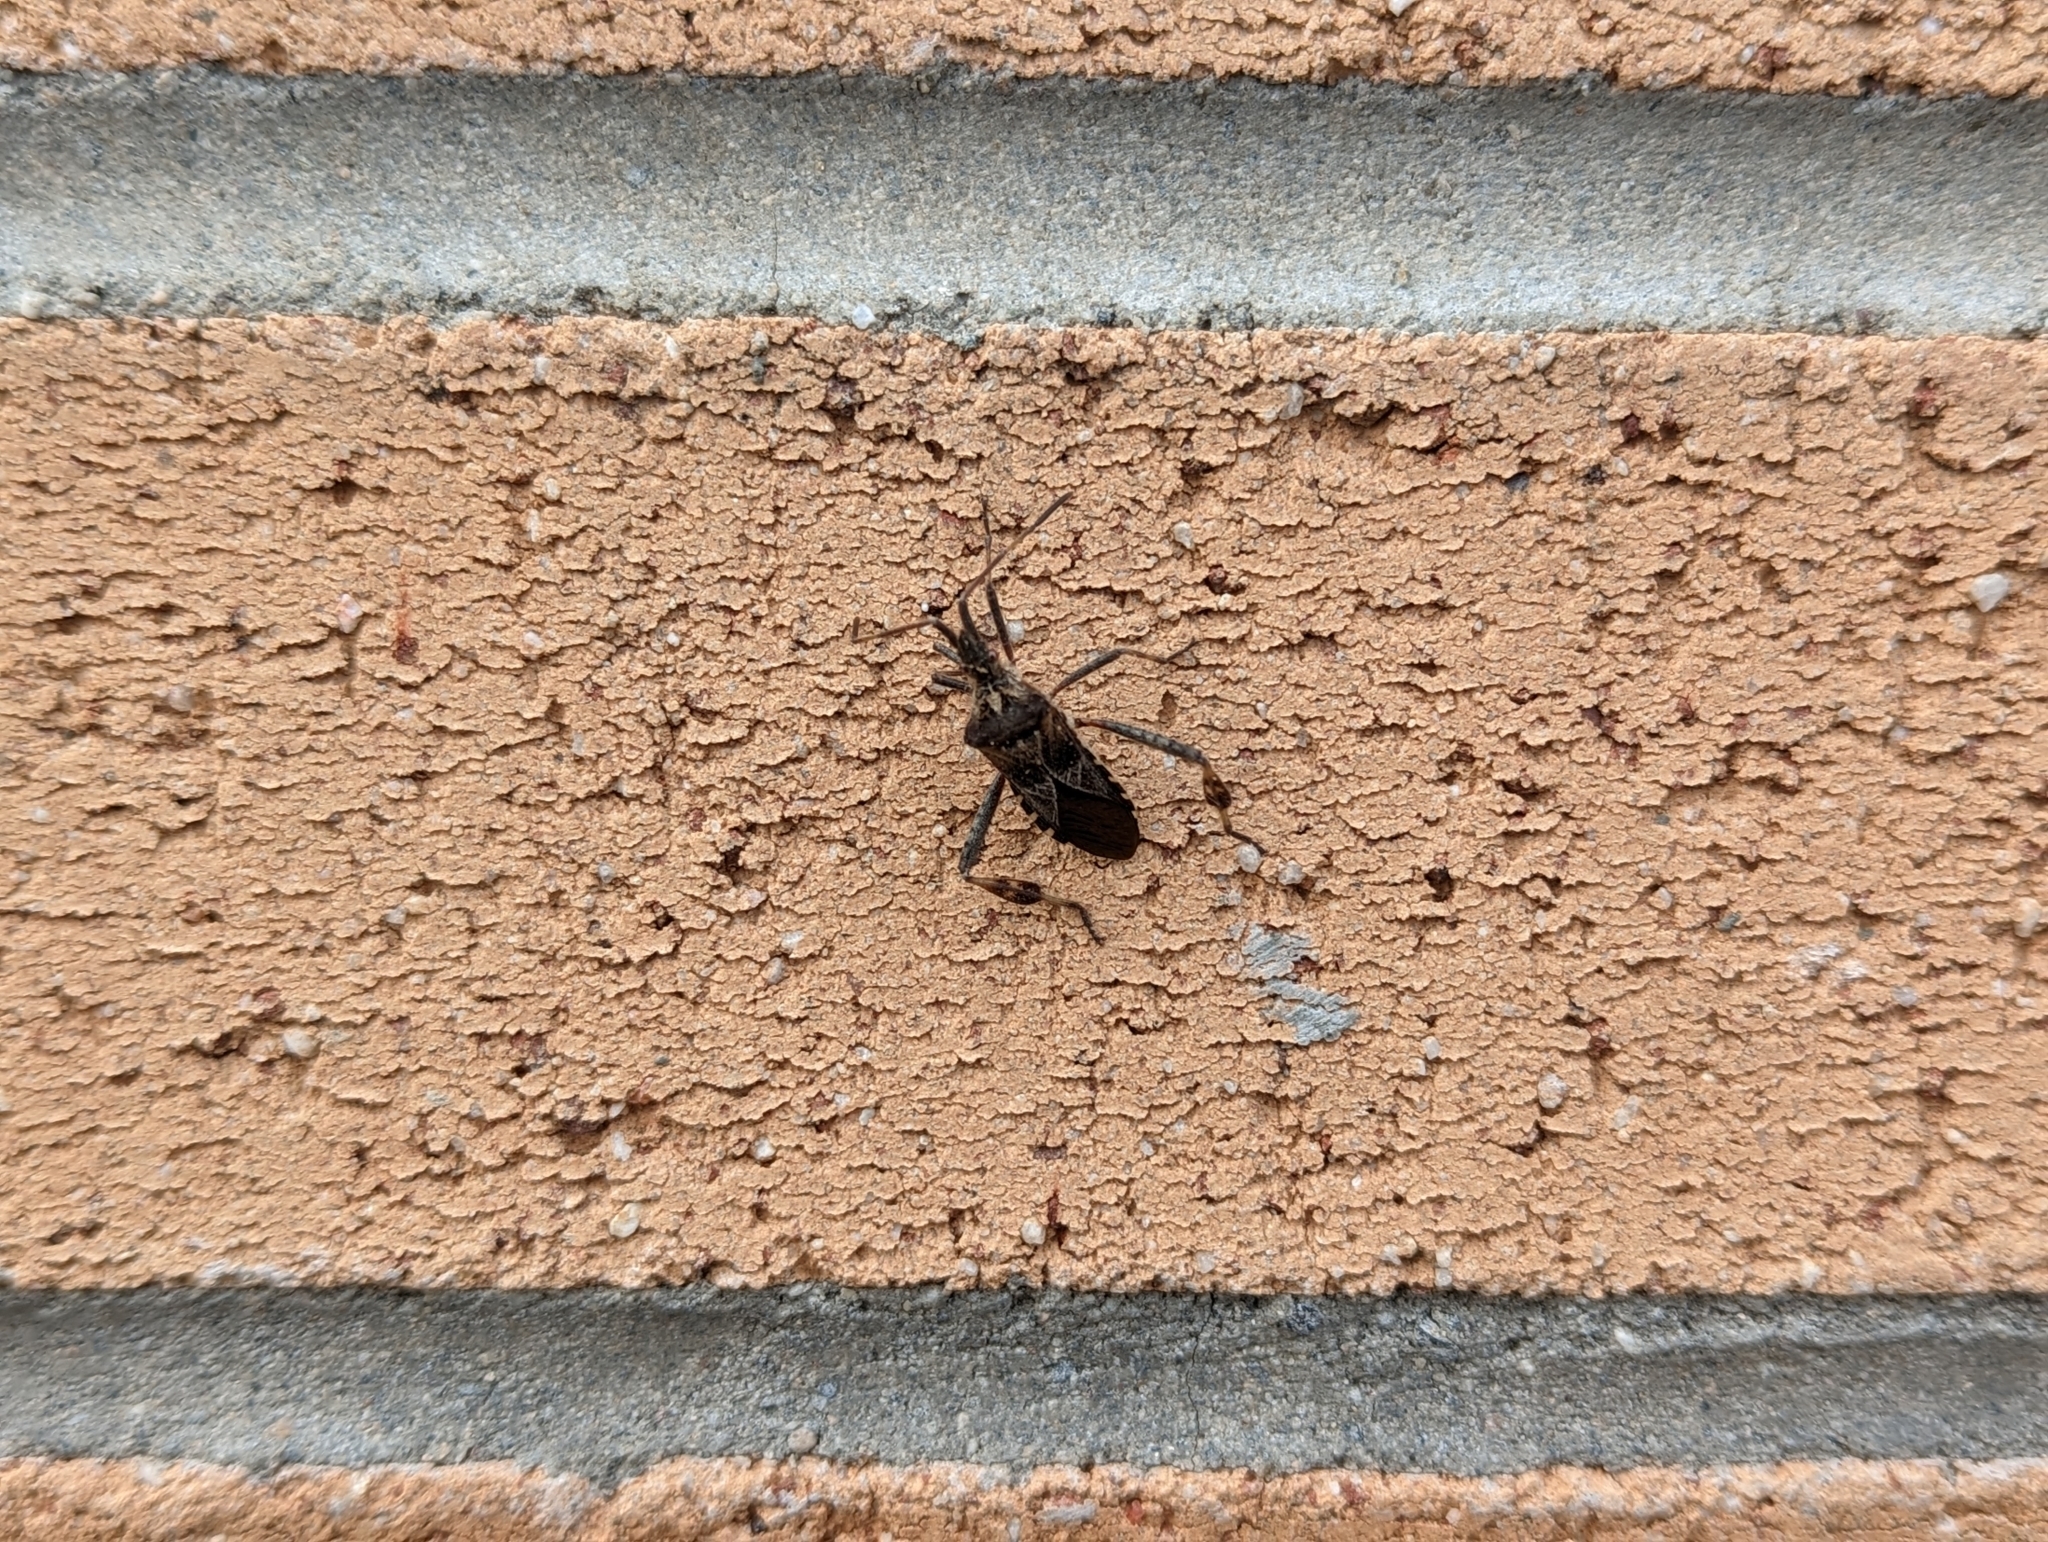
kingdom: Animalia
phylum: Arthropoda
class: Insecta
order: Hemiptera
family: Coreidae
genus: Leptoglossus
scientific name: Leptoglossus occidentalis
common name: Western conifer-seed bug
